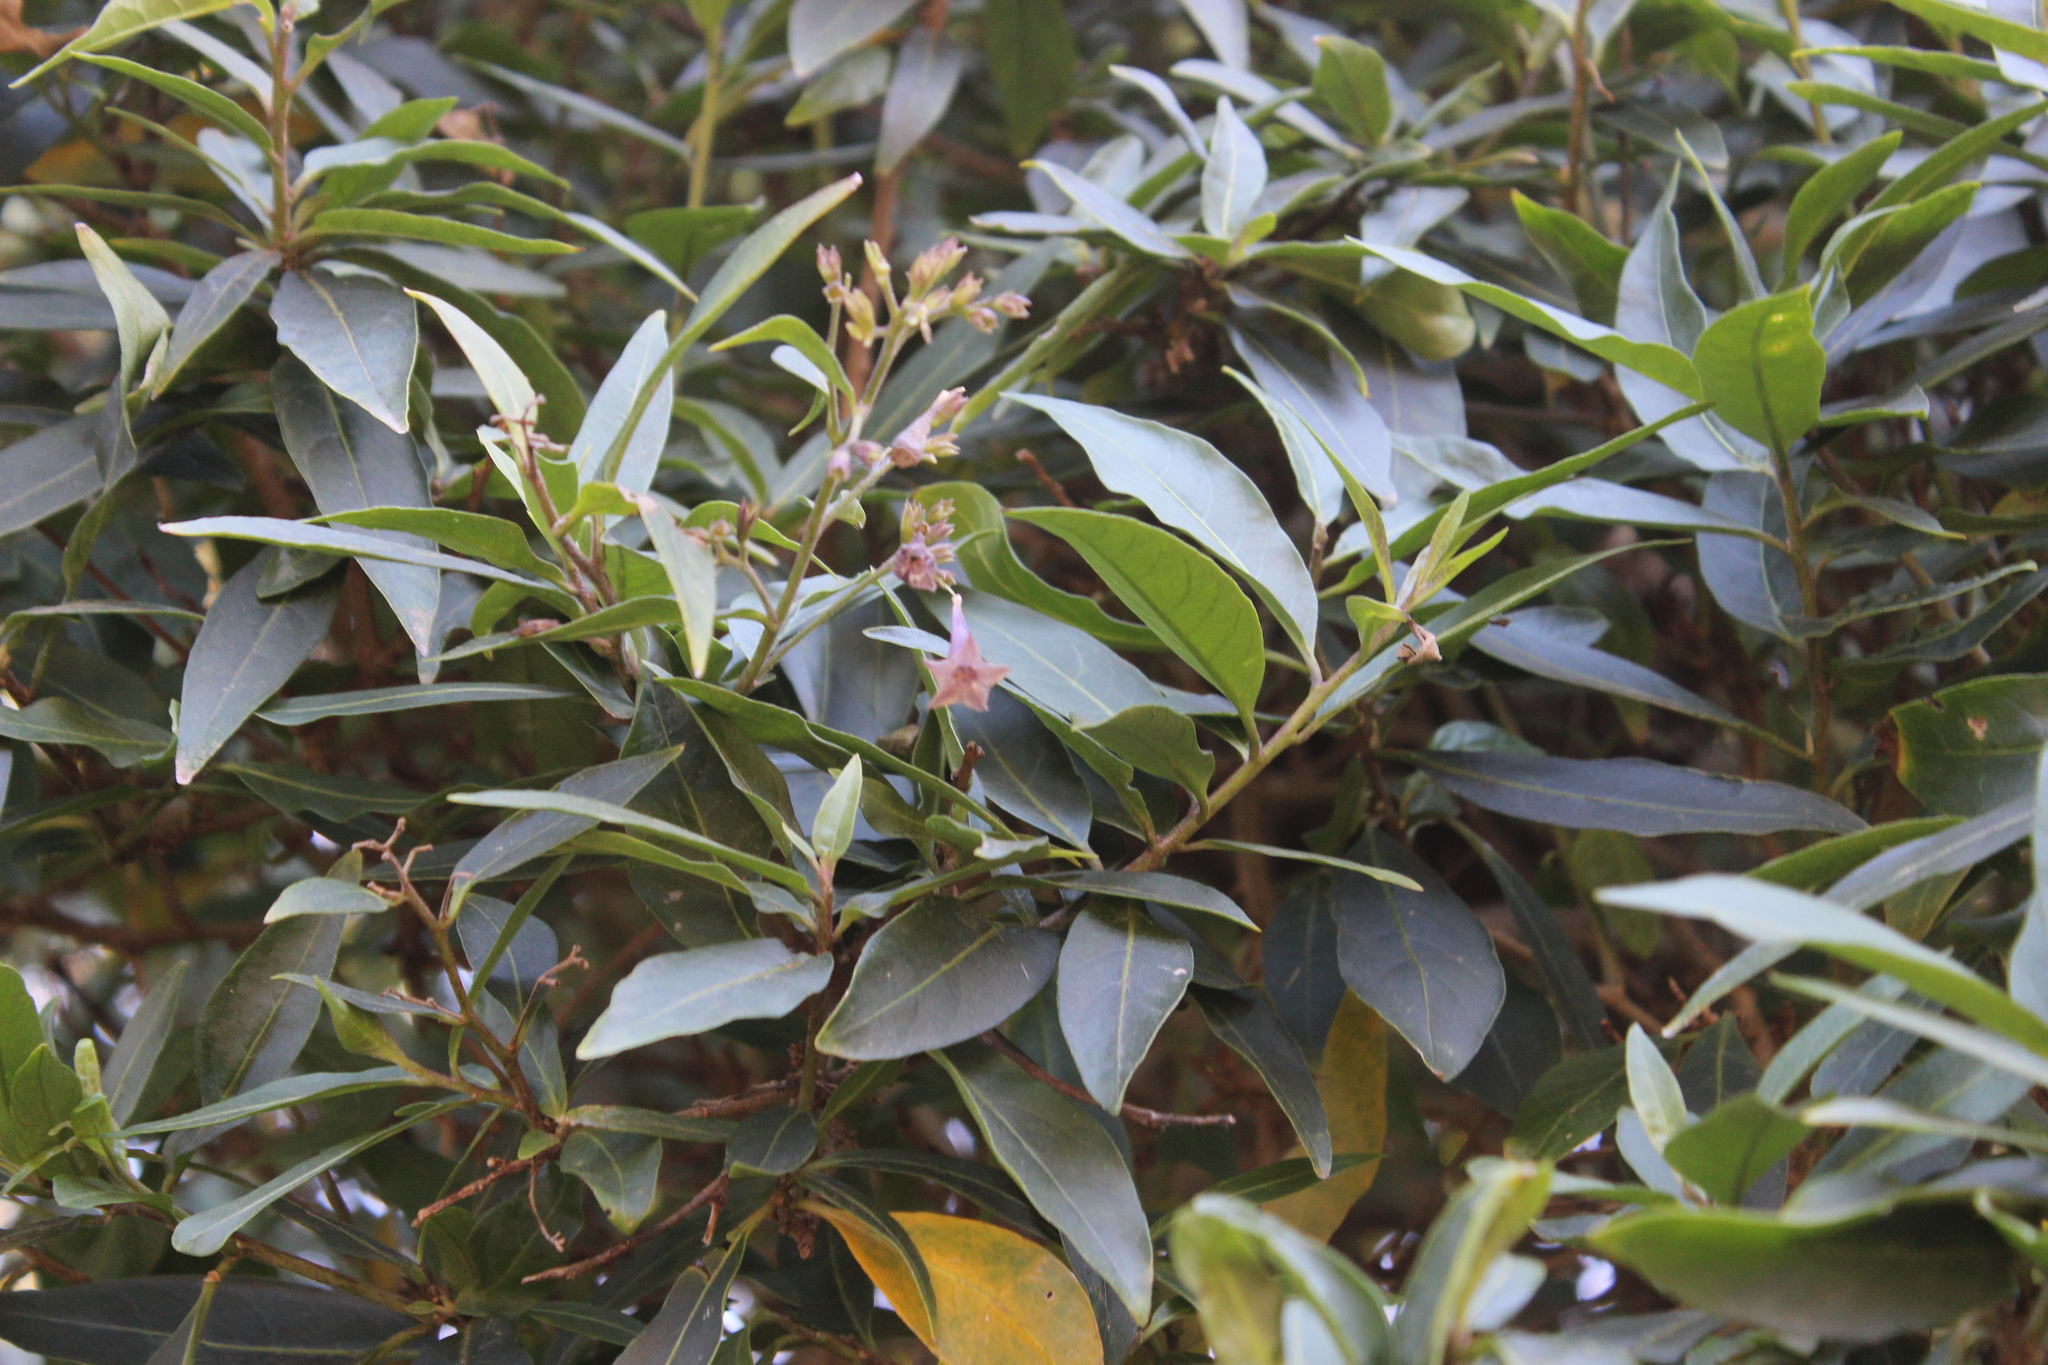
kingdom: Plantae
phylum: Tracheophyta
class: Magnoliopsida
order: Solanales
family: Solanaceae
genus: Cestrum
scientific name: Cestrum elegans
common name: Crimson cestrum
